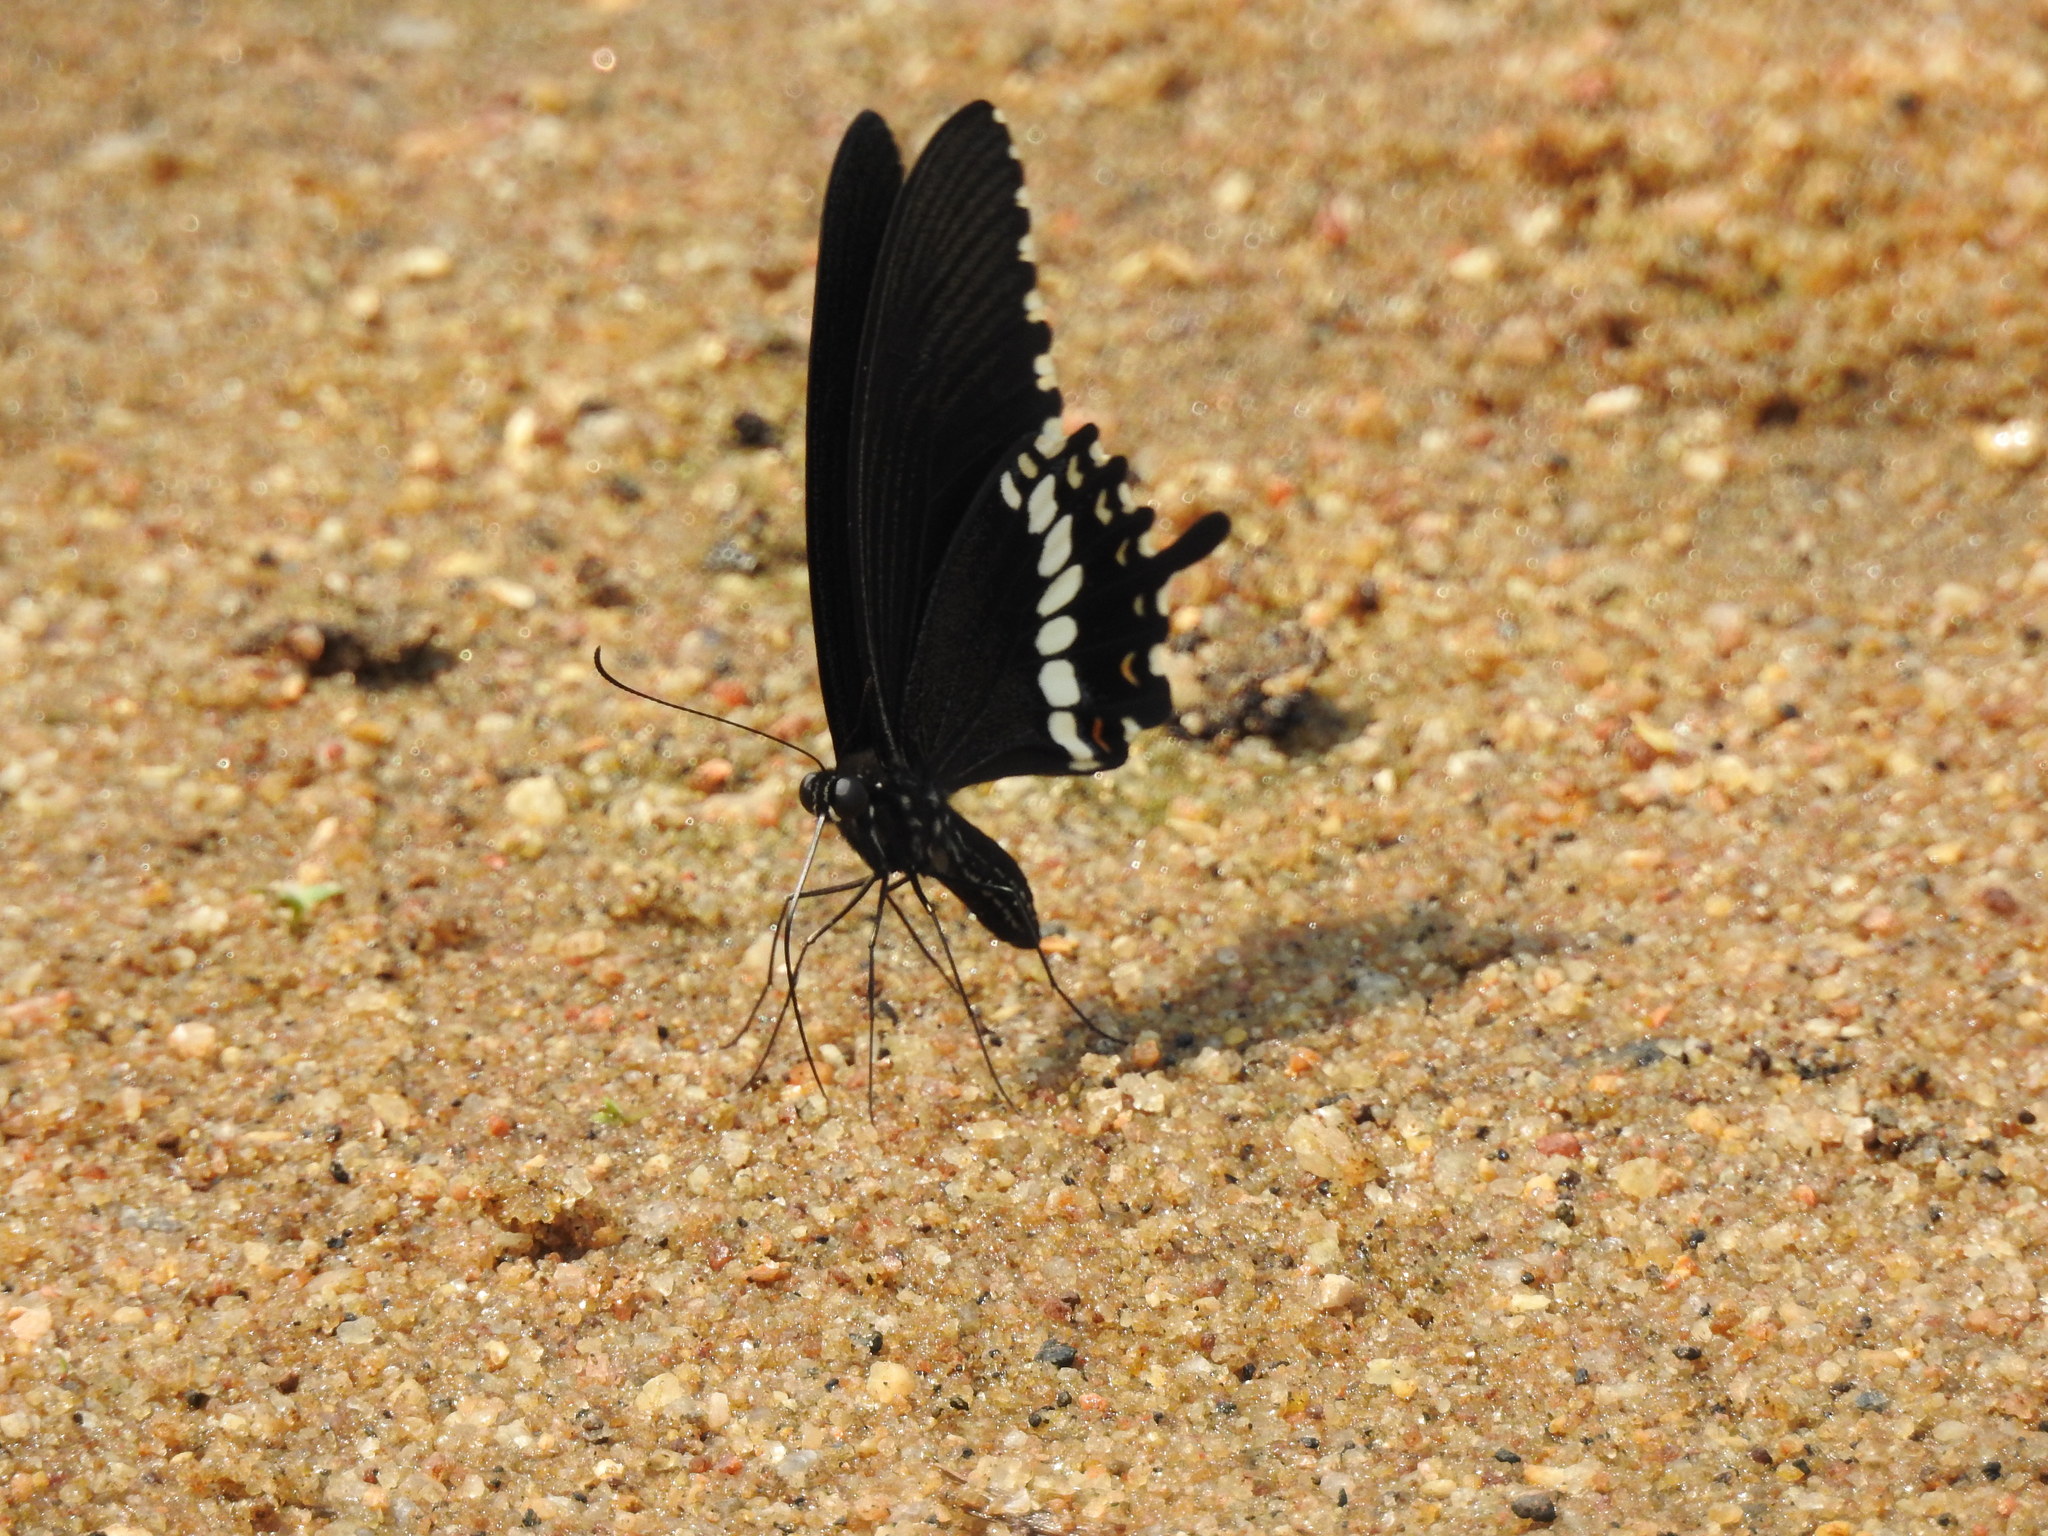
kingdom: Animalia
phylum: Arthropoda
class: Insecta
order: Lepidoptera
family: Papilionidae
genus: Papilio
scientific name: Papilio polytes
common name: Common mormon
